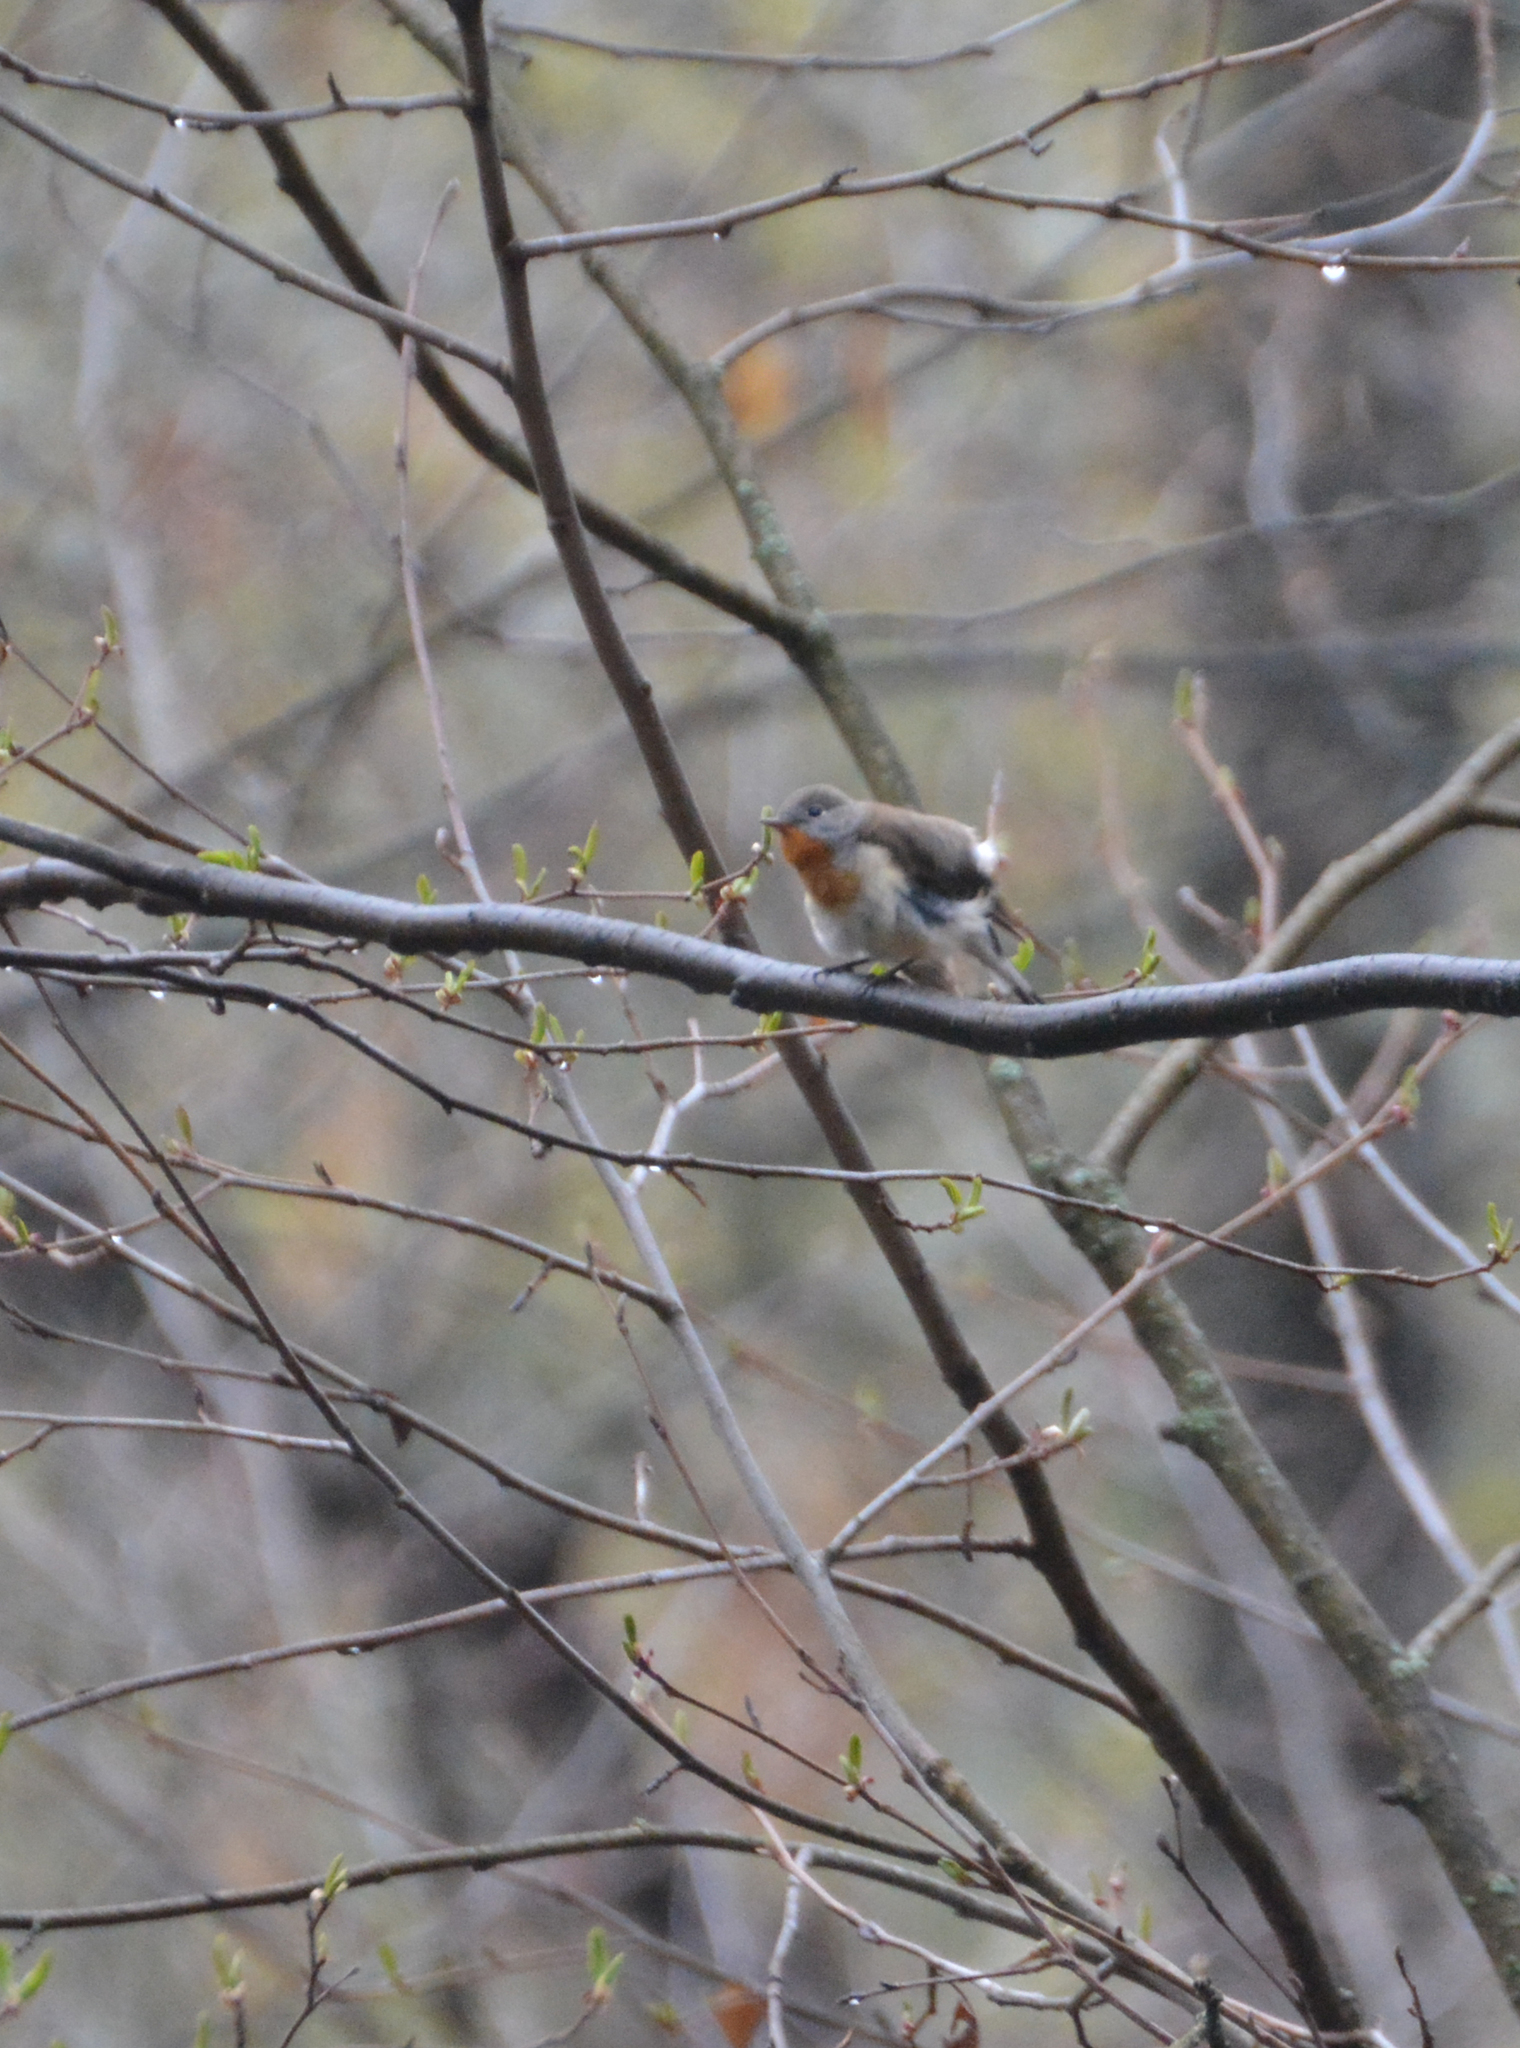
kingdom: Animalia
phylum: Chordata
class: Aves
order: Passeriformes
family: Muscicapidae
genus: Ficedula
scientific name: Ficedula parva
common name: Red-breasted flycatcher
